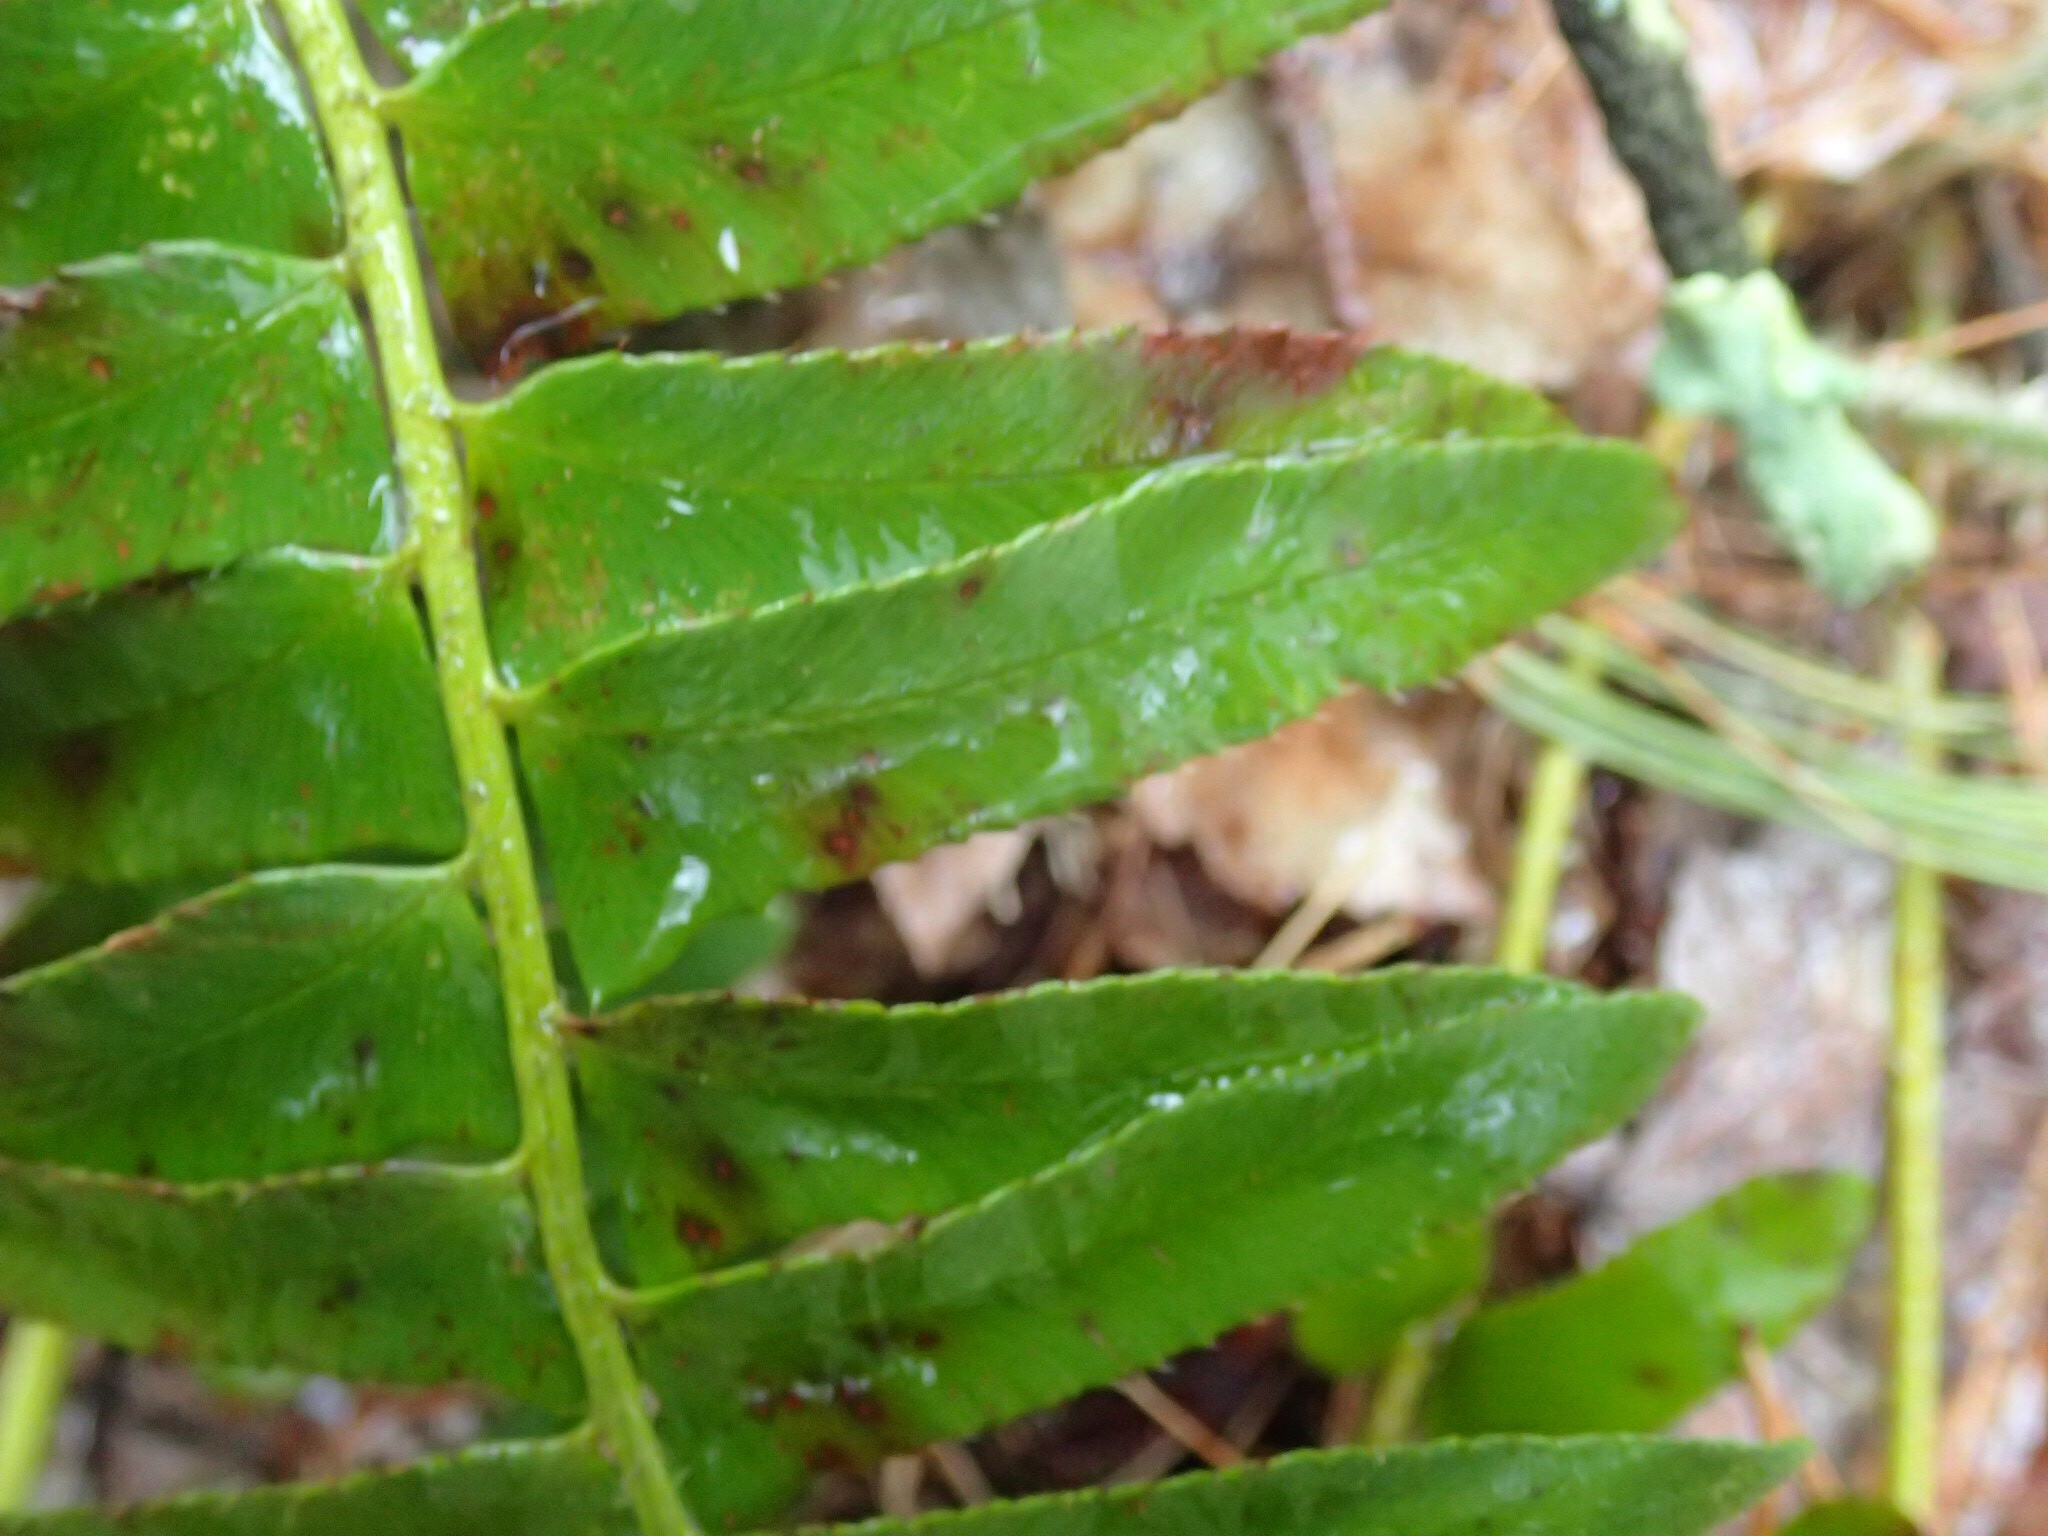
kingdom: Plantae
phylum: Tracheophyta
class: Polypodiopsida
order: Polypodiales
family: Dryopteridaceae
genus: Polystichum
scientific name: Polystichum acrostichoides
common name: Christmas fern
